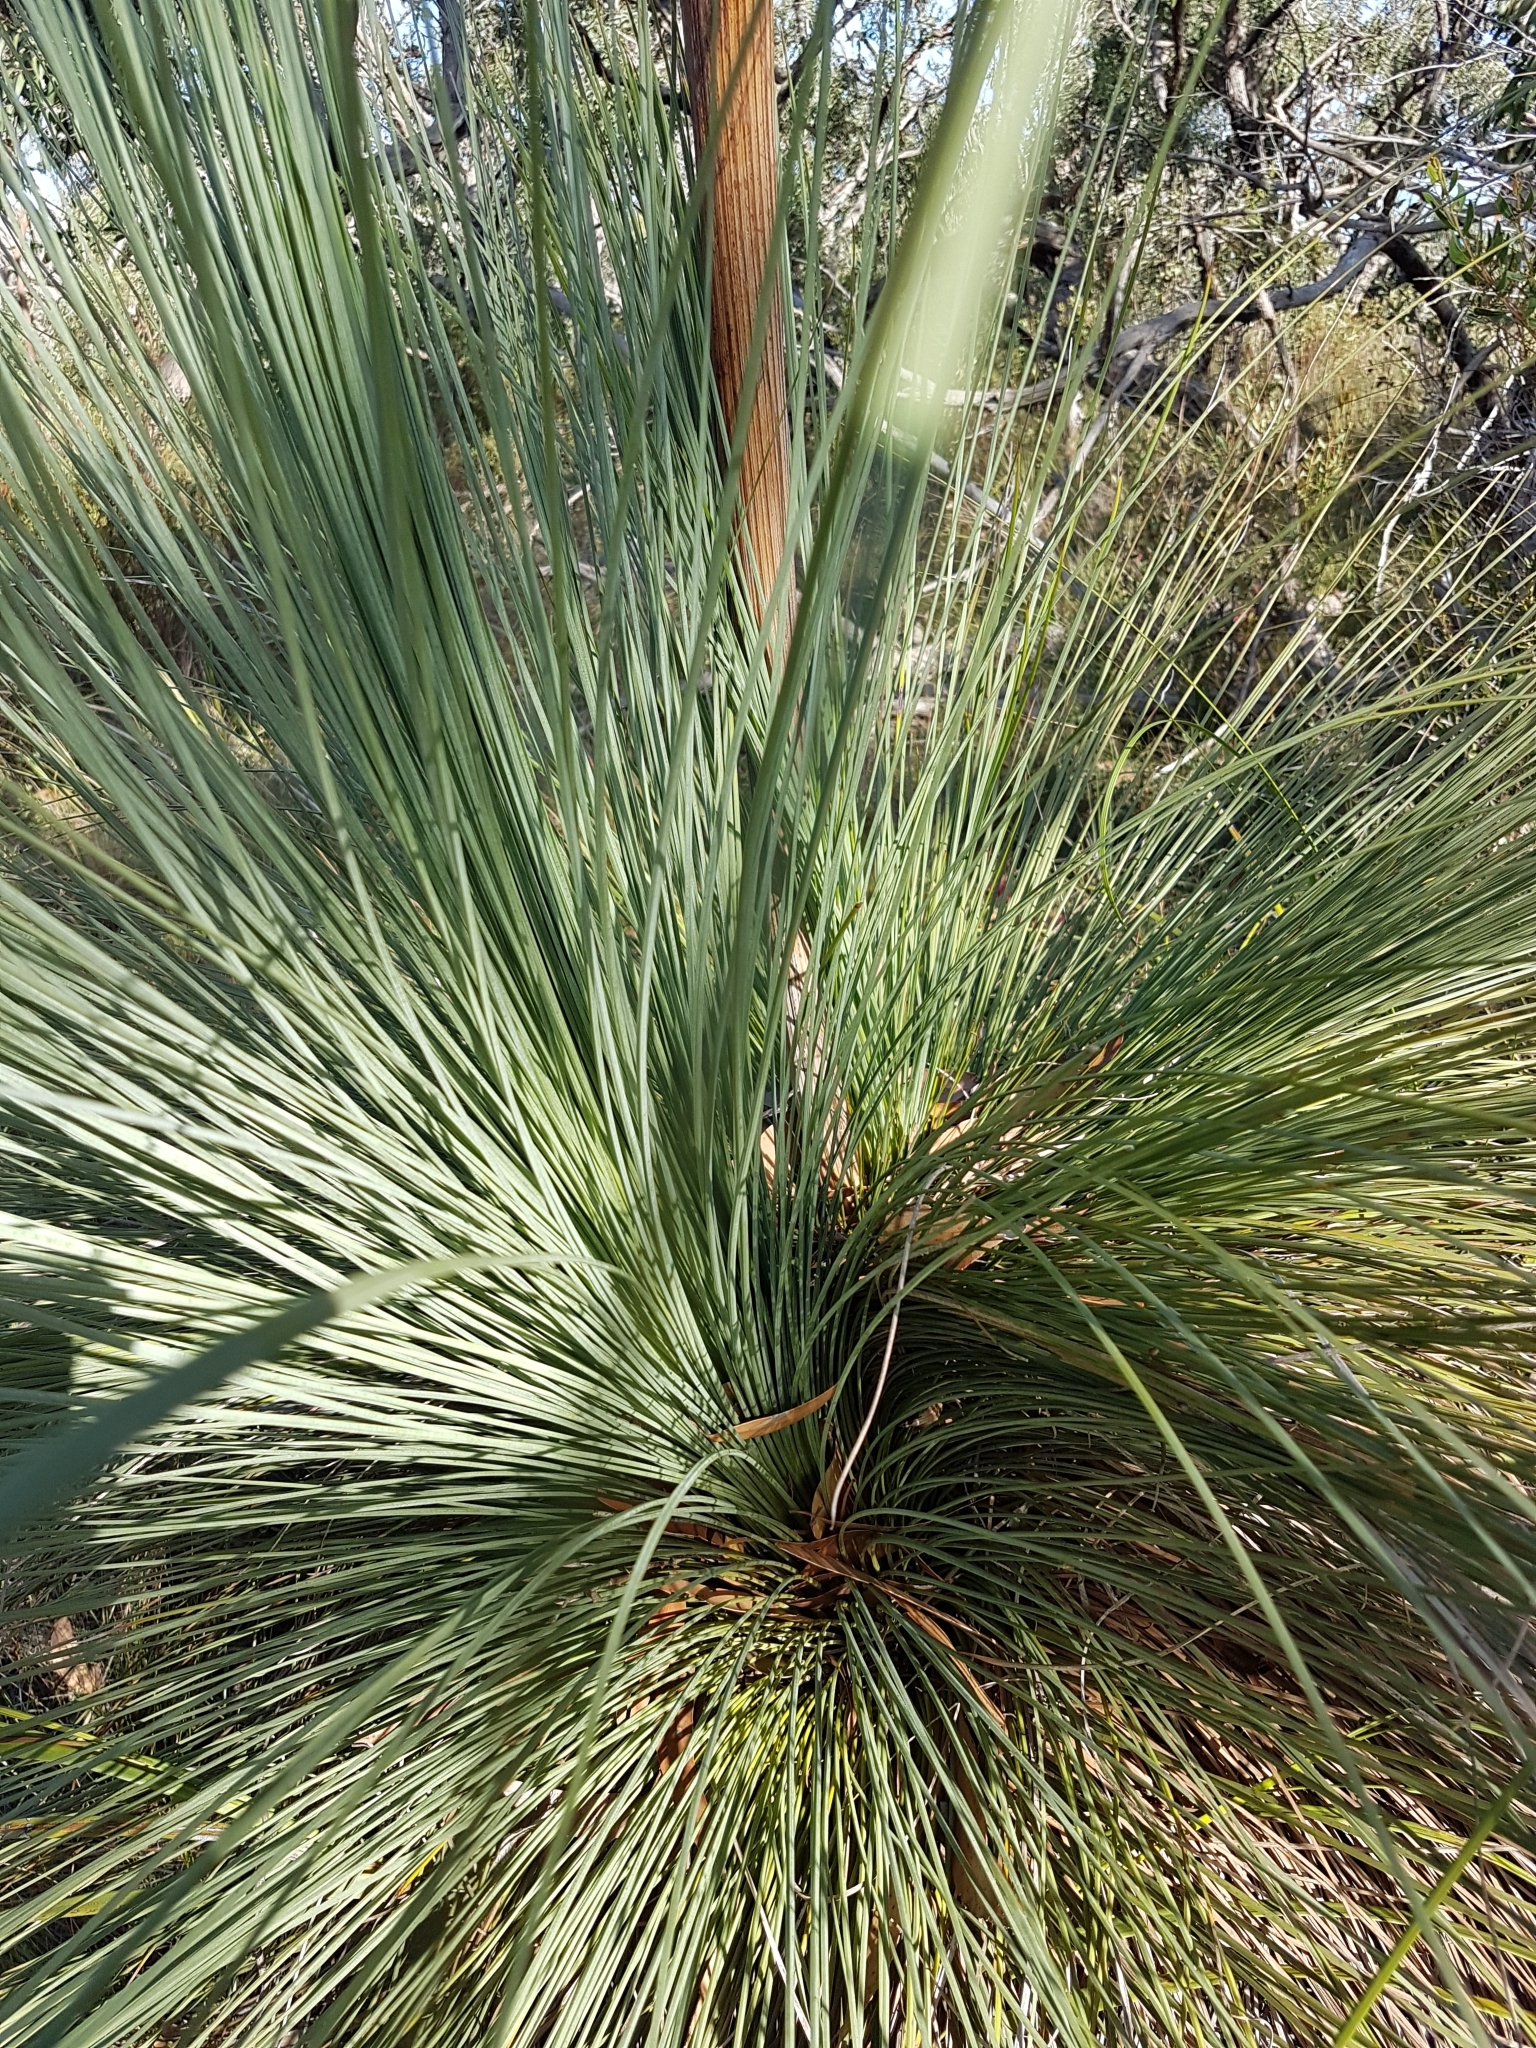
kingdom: Plantae
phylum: Tracheophyta
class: Liliopsida
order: Asparagales
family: Asphodelaceae
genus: Xanthorrhoea
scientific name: Xanthorrhoea australis
